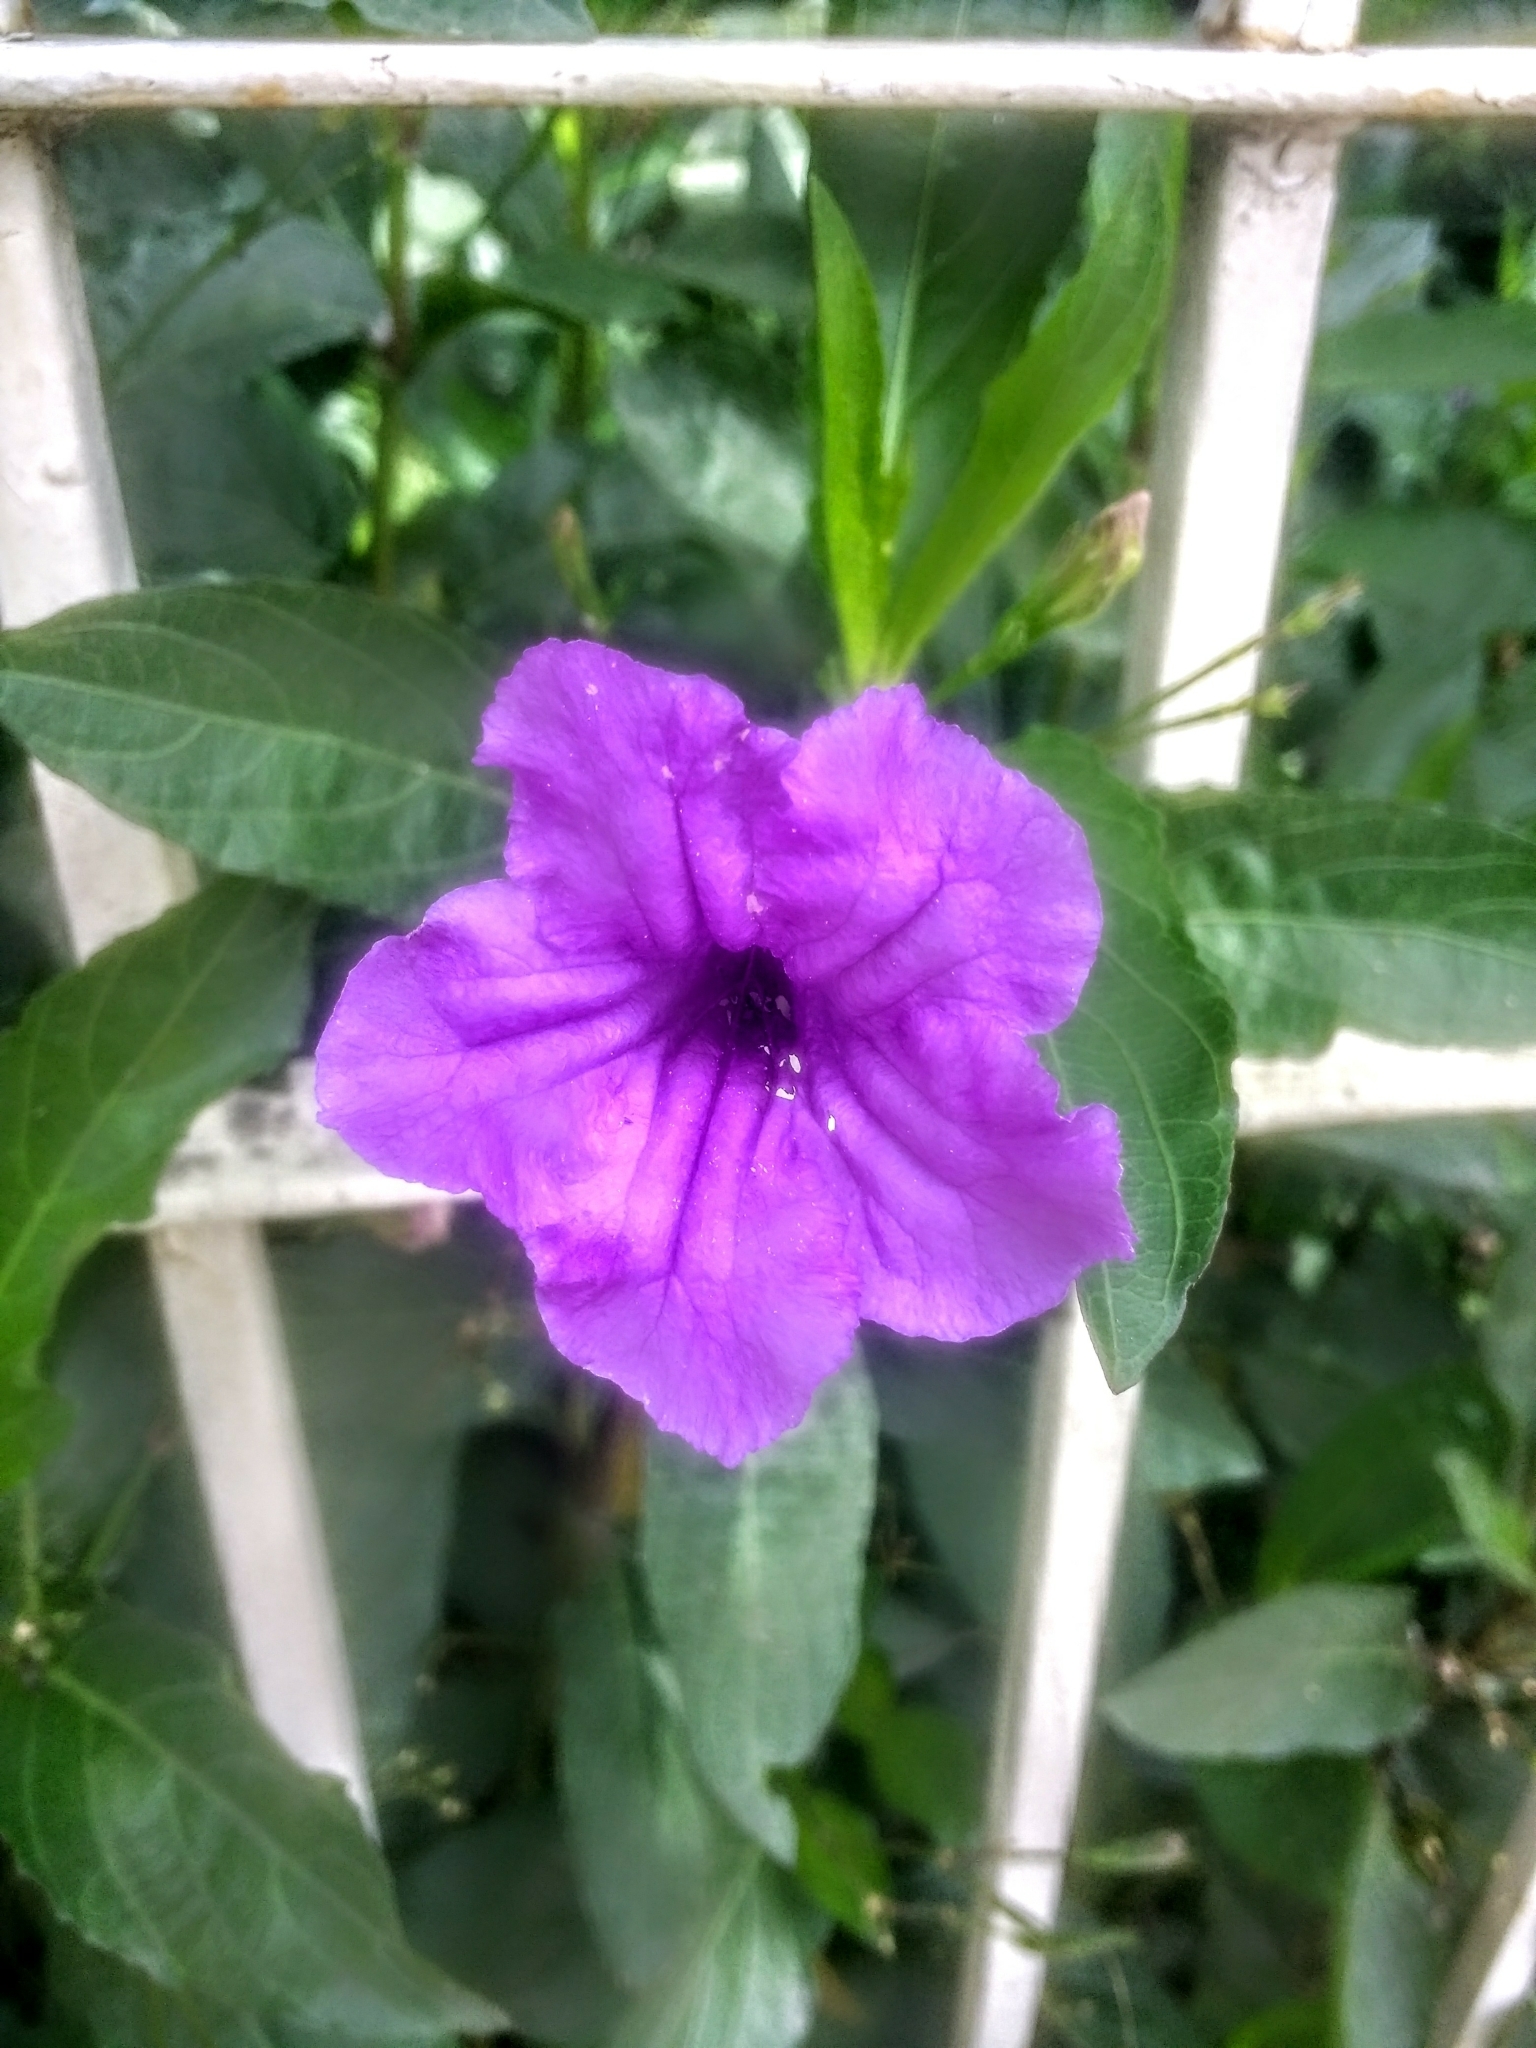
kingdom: Plantae
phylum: Tracheophyta
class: Magnoliopsida
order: Lamiales
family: Acanthaceae
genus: Ruellia
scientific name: Ruellia simplex
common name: Softseed wild petunia
